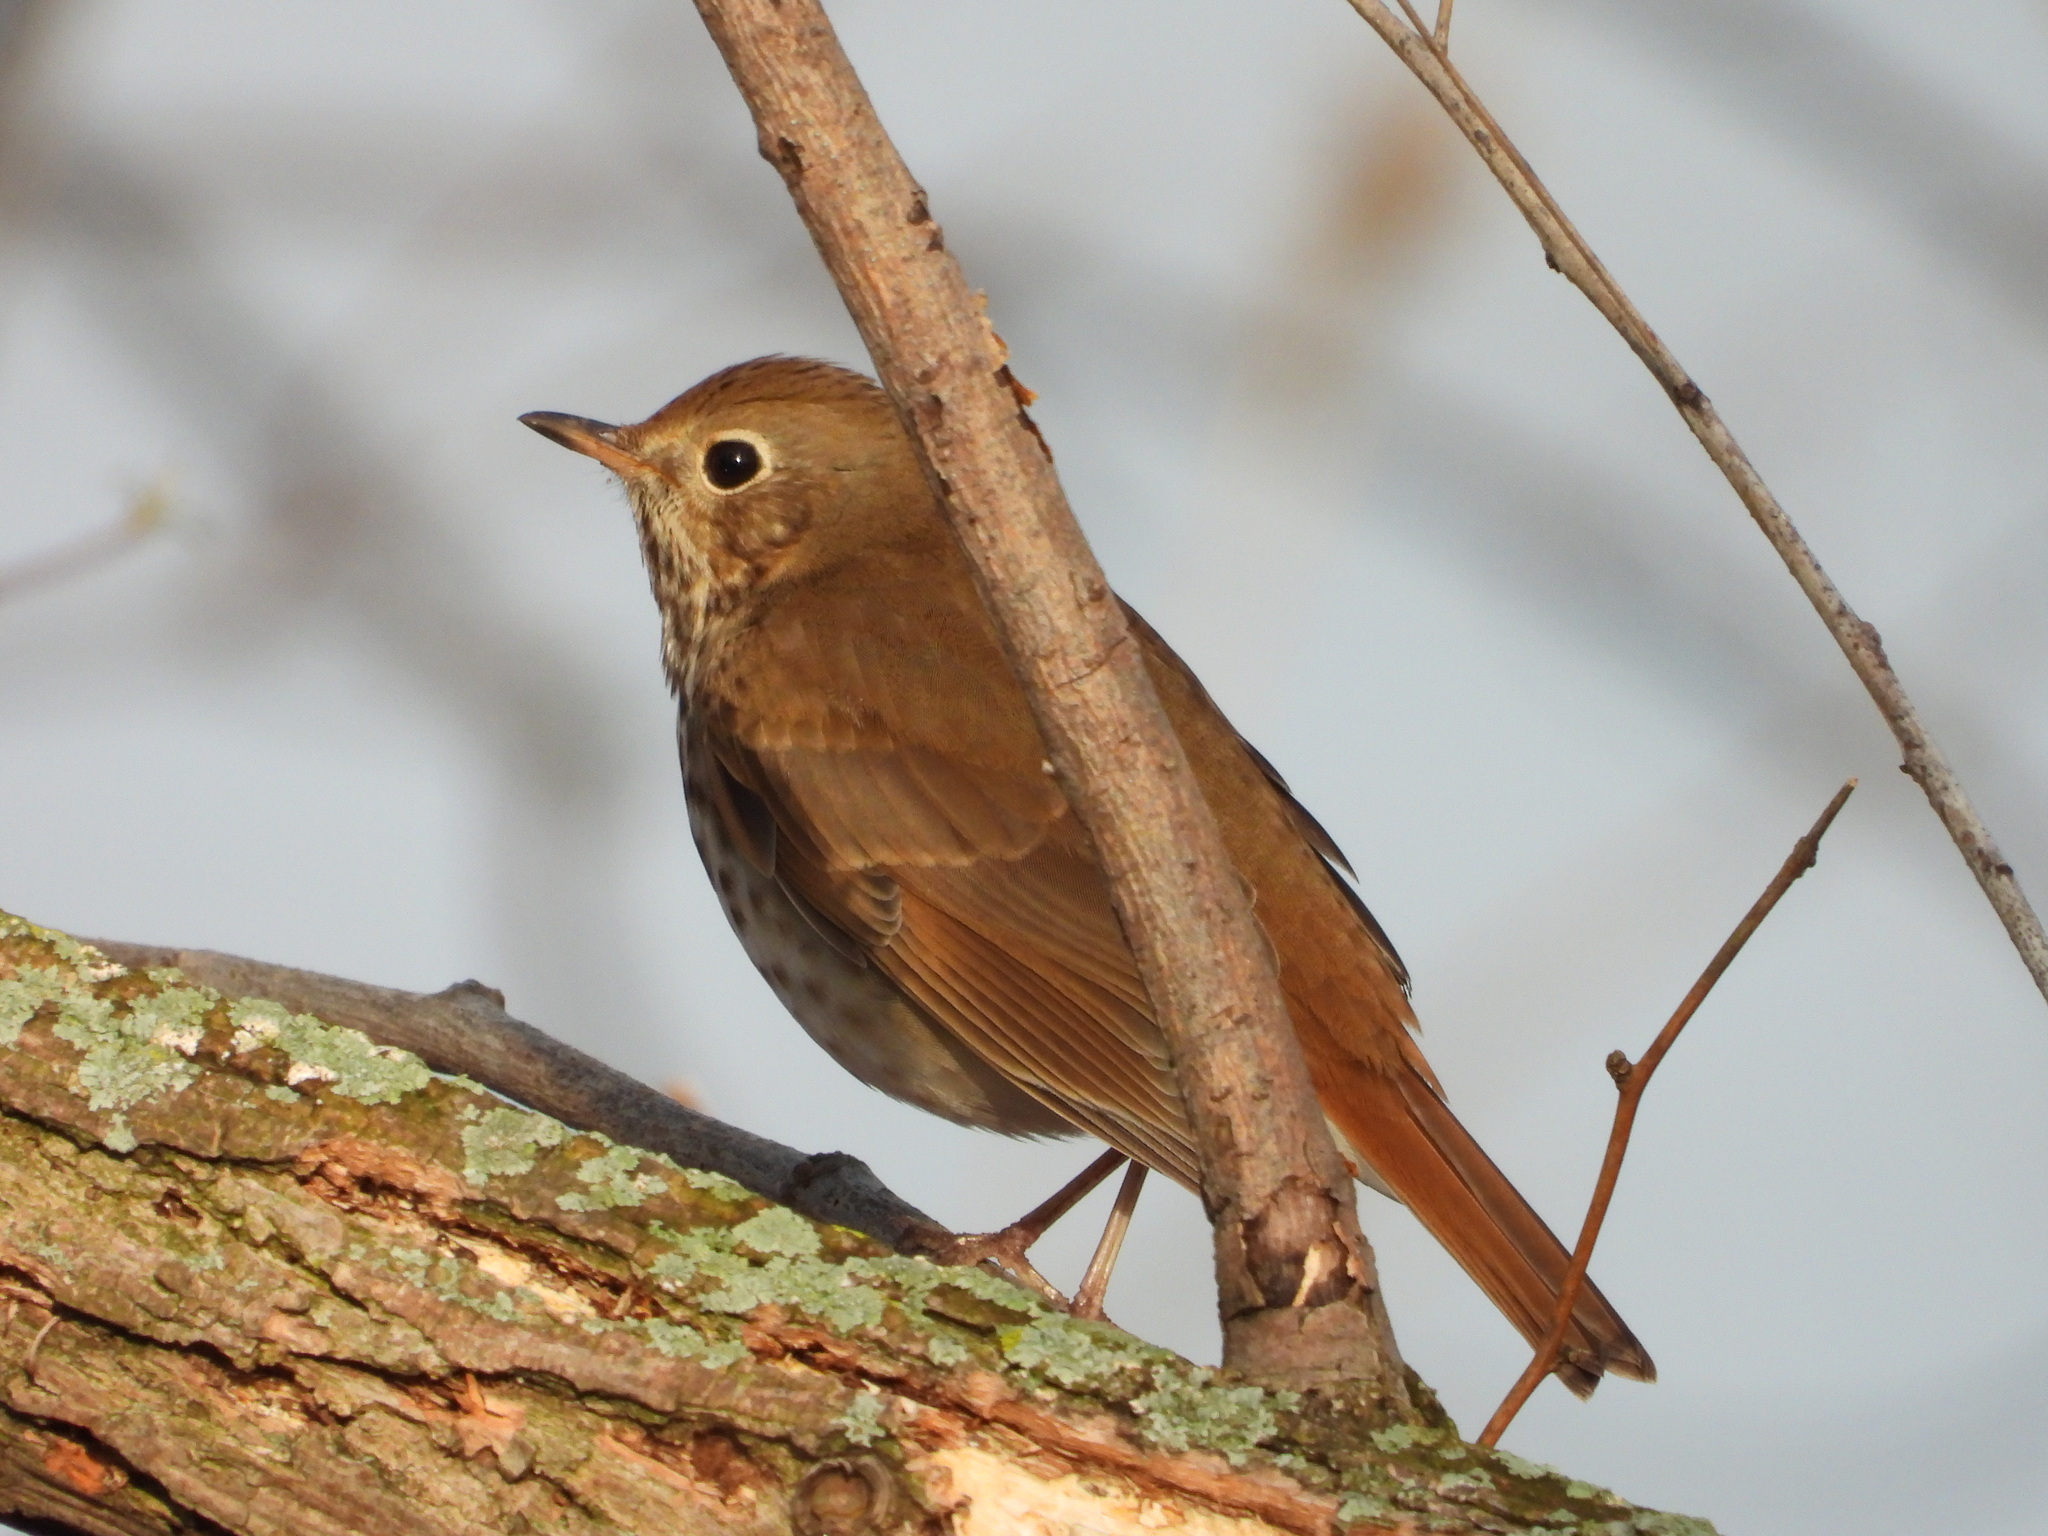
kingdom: Animalia
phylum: Chordata
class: Aves
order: Passeriformes
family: Turdidae
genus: Catharus
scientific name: Catharus guttatus
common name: Hermit thrush
